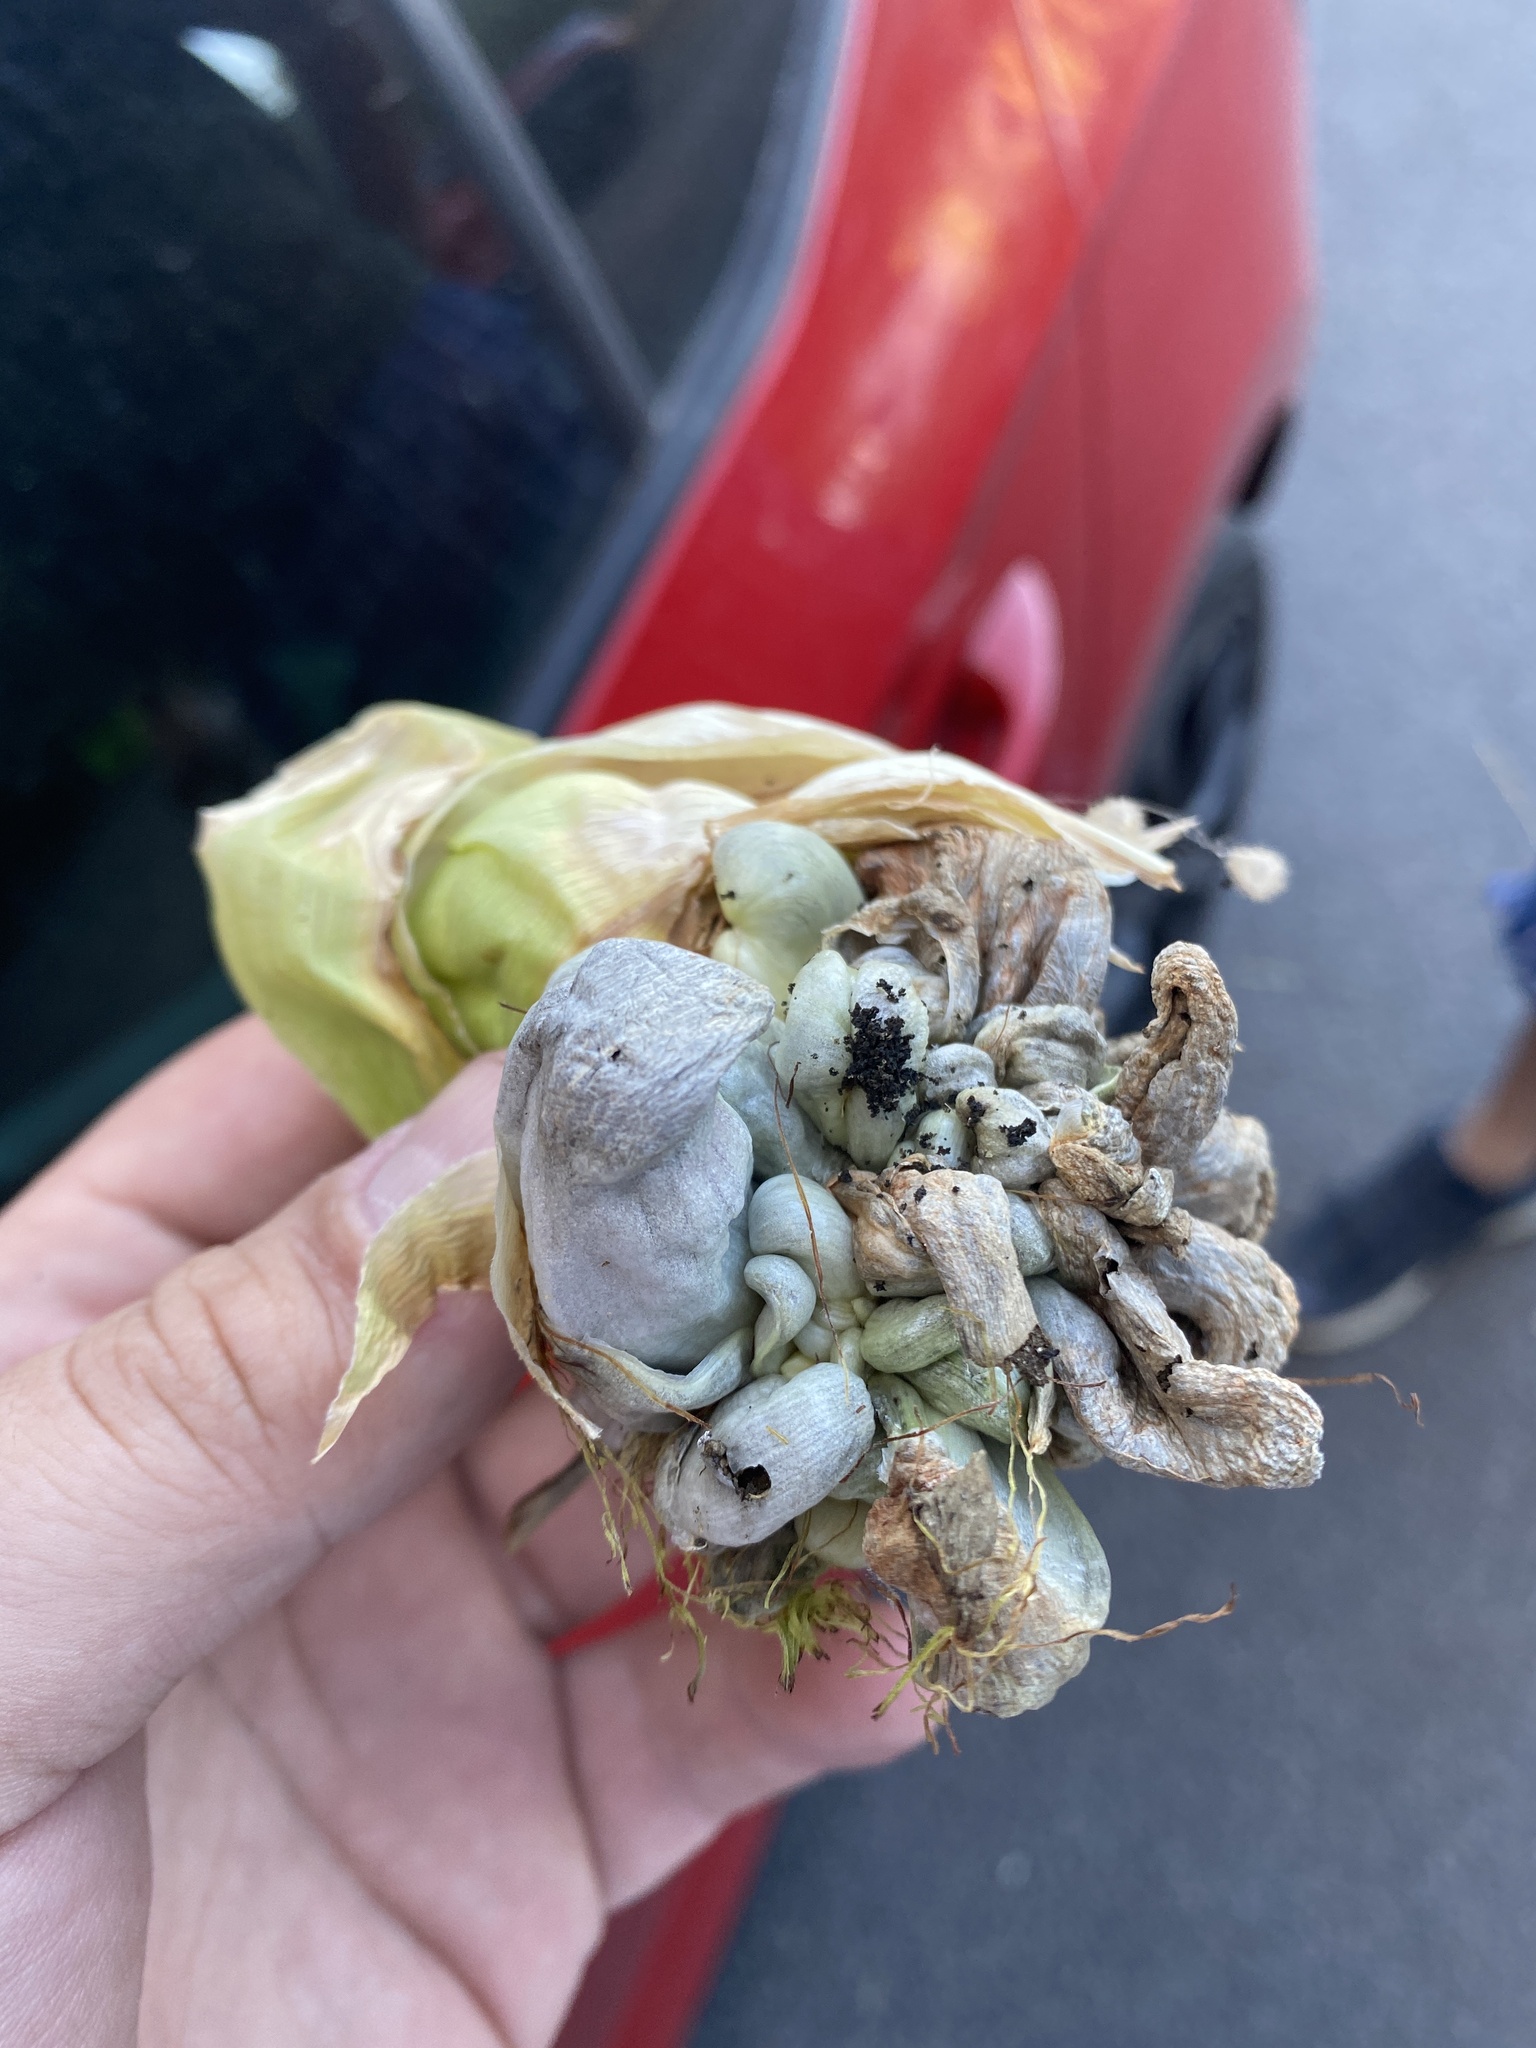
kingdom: Fungi
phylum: Basidiomycota
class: Ustilaginomycetes
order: Ustilaginales
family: Ustilaginaceae
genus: Mycosarcoma
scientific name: Mycosarcoma maydis
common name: Corn smut
